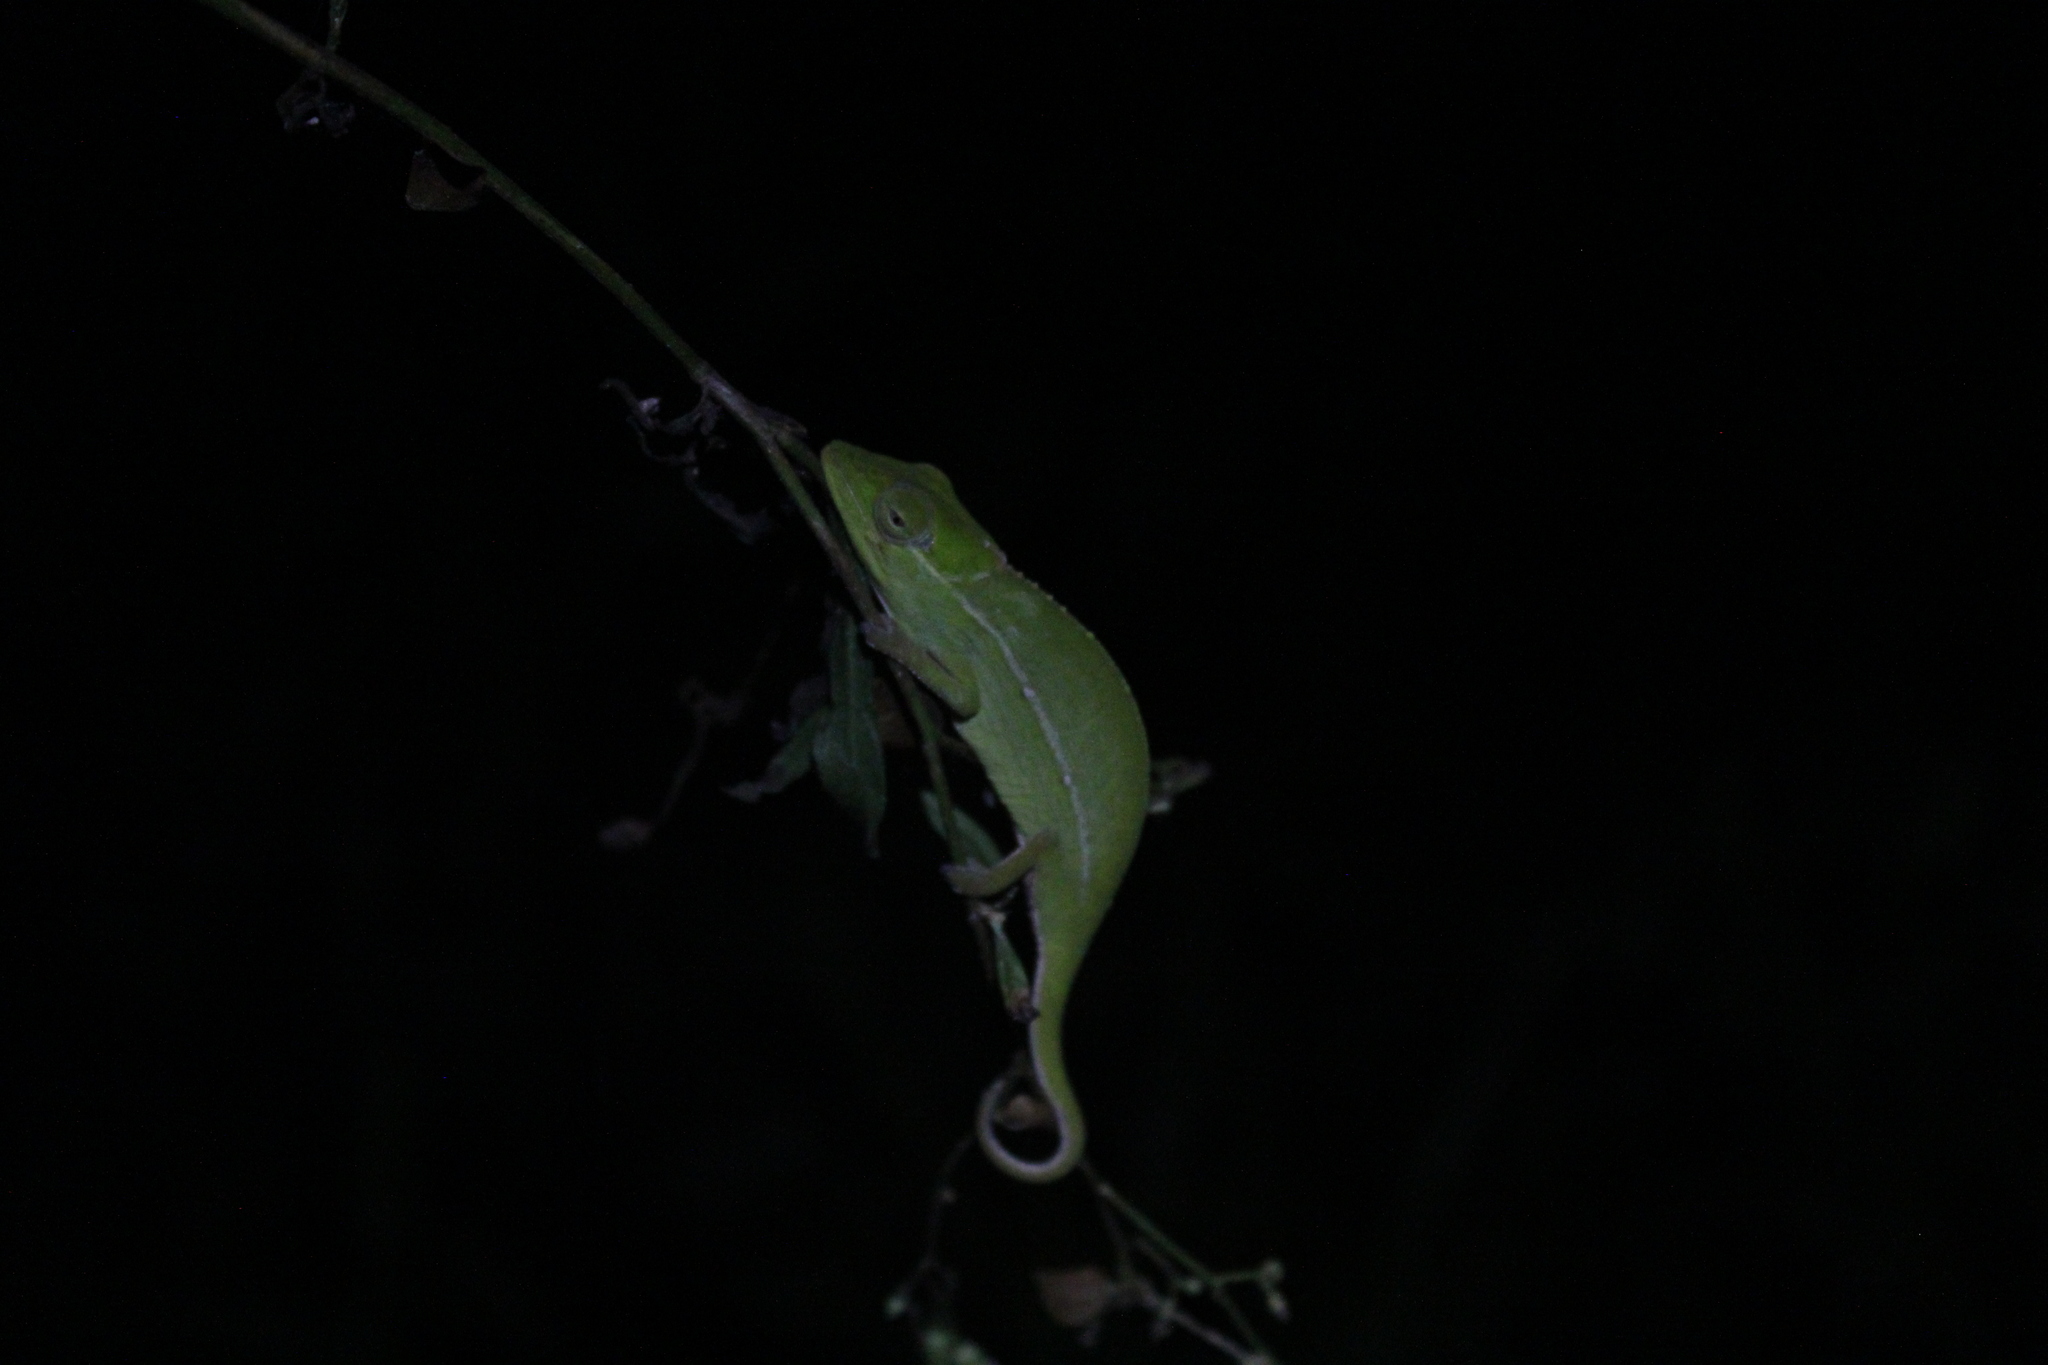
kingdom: Animalia
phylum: Chordata
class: Squamata
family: Chamaeleonidae
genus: Calumma
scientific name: Calumma gastrotaenia
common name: Short-nosed chameleon
